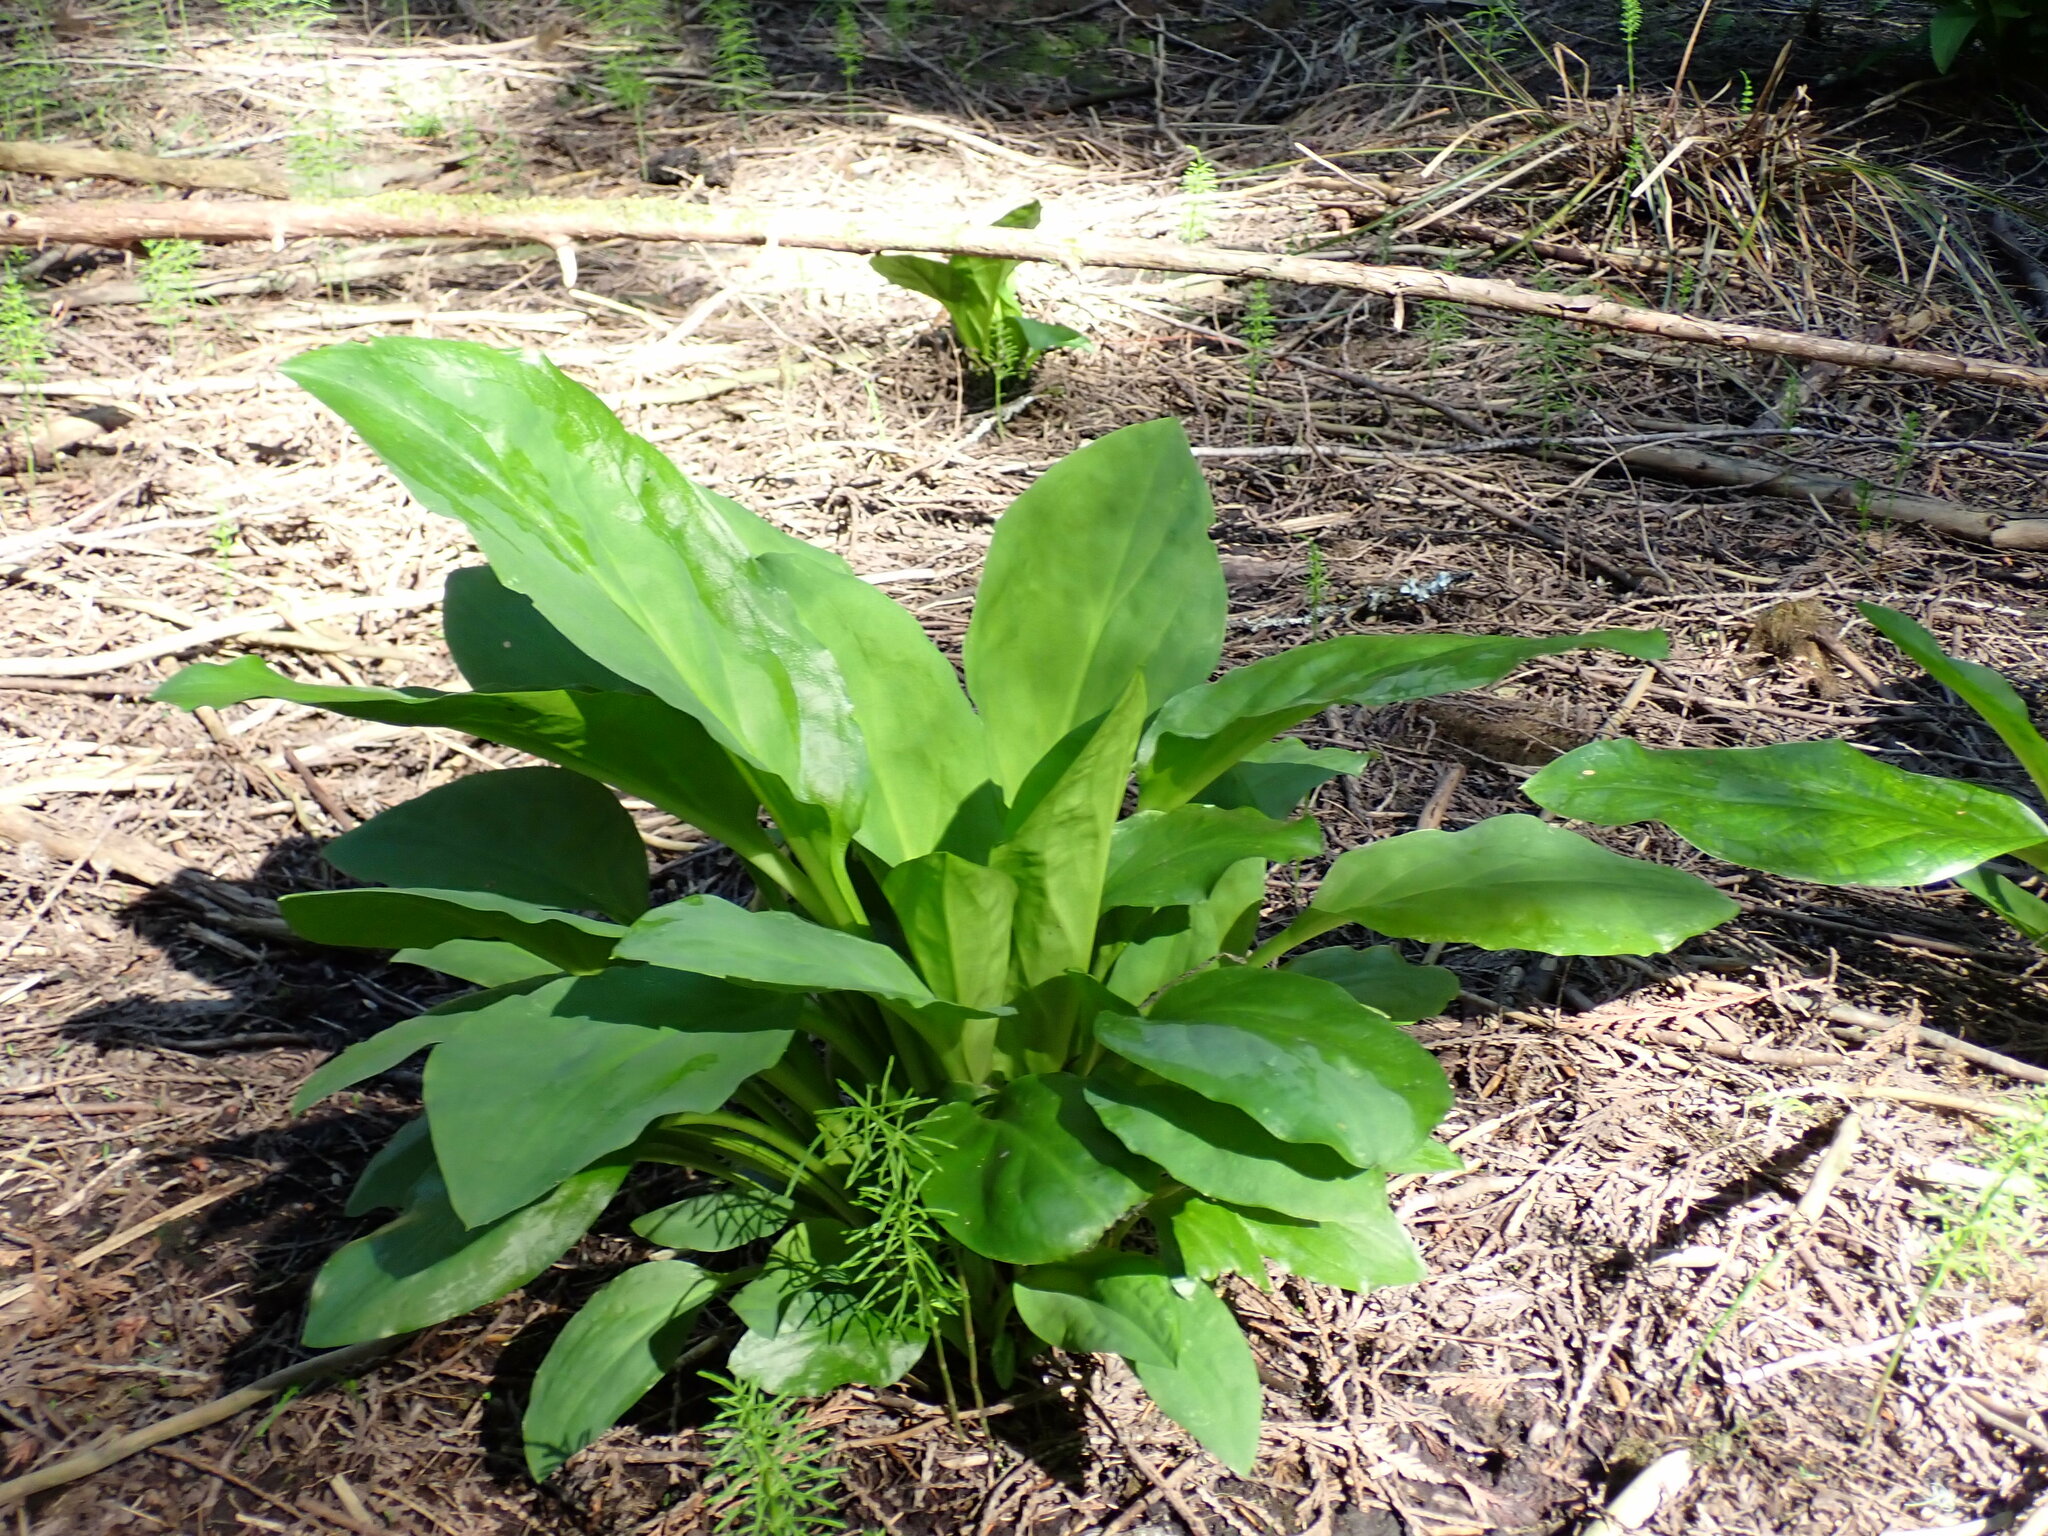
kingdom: Plantae
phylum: Tracheophyta
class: Liliopsida
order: Alismatales
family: Araceae
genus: Lysichiton
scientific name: Lysichiton americanus
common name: American skunk cabbage
